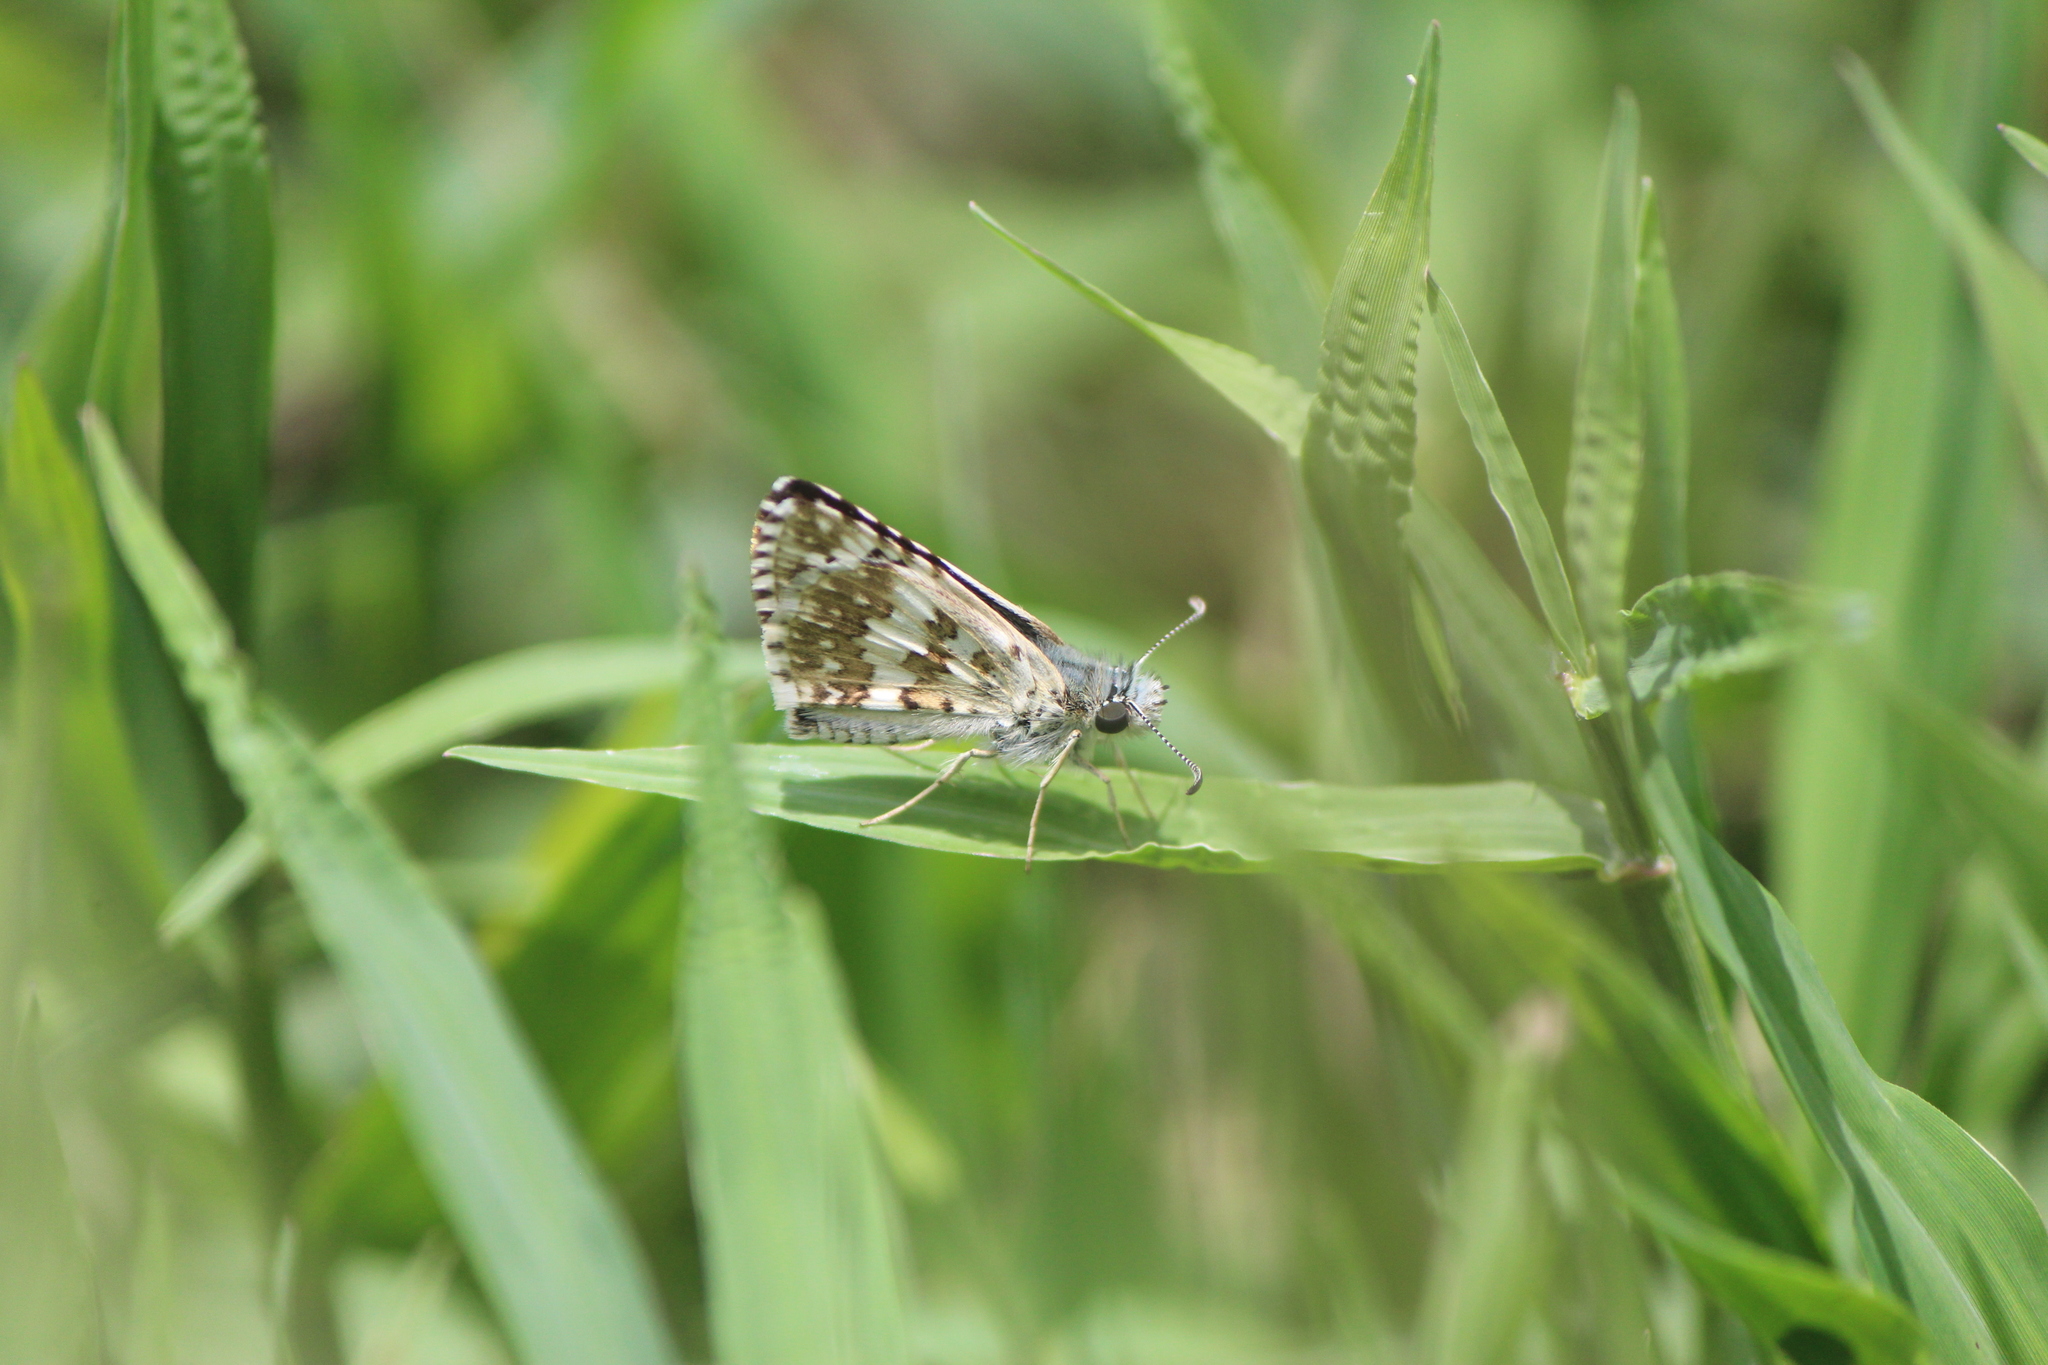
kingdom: Animalia
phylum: Arthropoda
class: Insecta
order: Lepidoptera
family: Hesperiidae
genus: Burnsius
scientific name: Burnsius communis
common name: Common checkered-skipper
